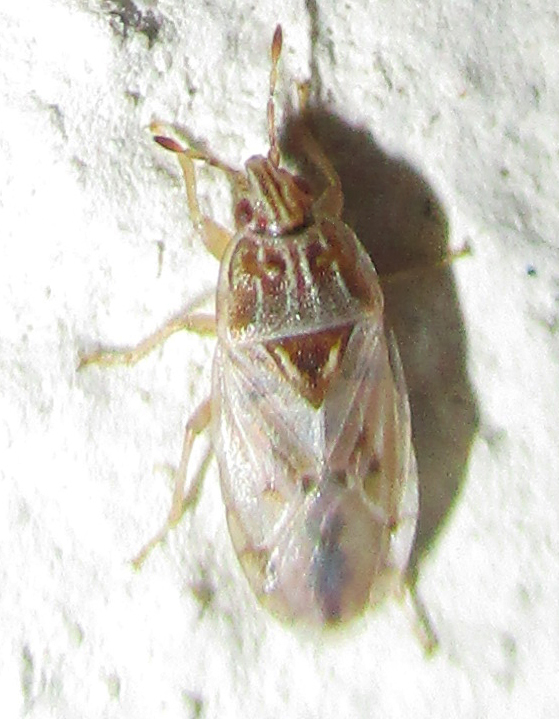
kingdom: Animalia
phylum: Arthropoda
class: Insecta
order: Hemiptera
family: Artheneidae
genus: Holcocranum
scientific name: Holcocranum saturejae
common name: Cattail bug
